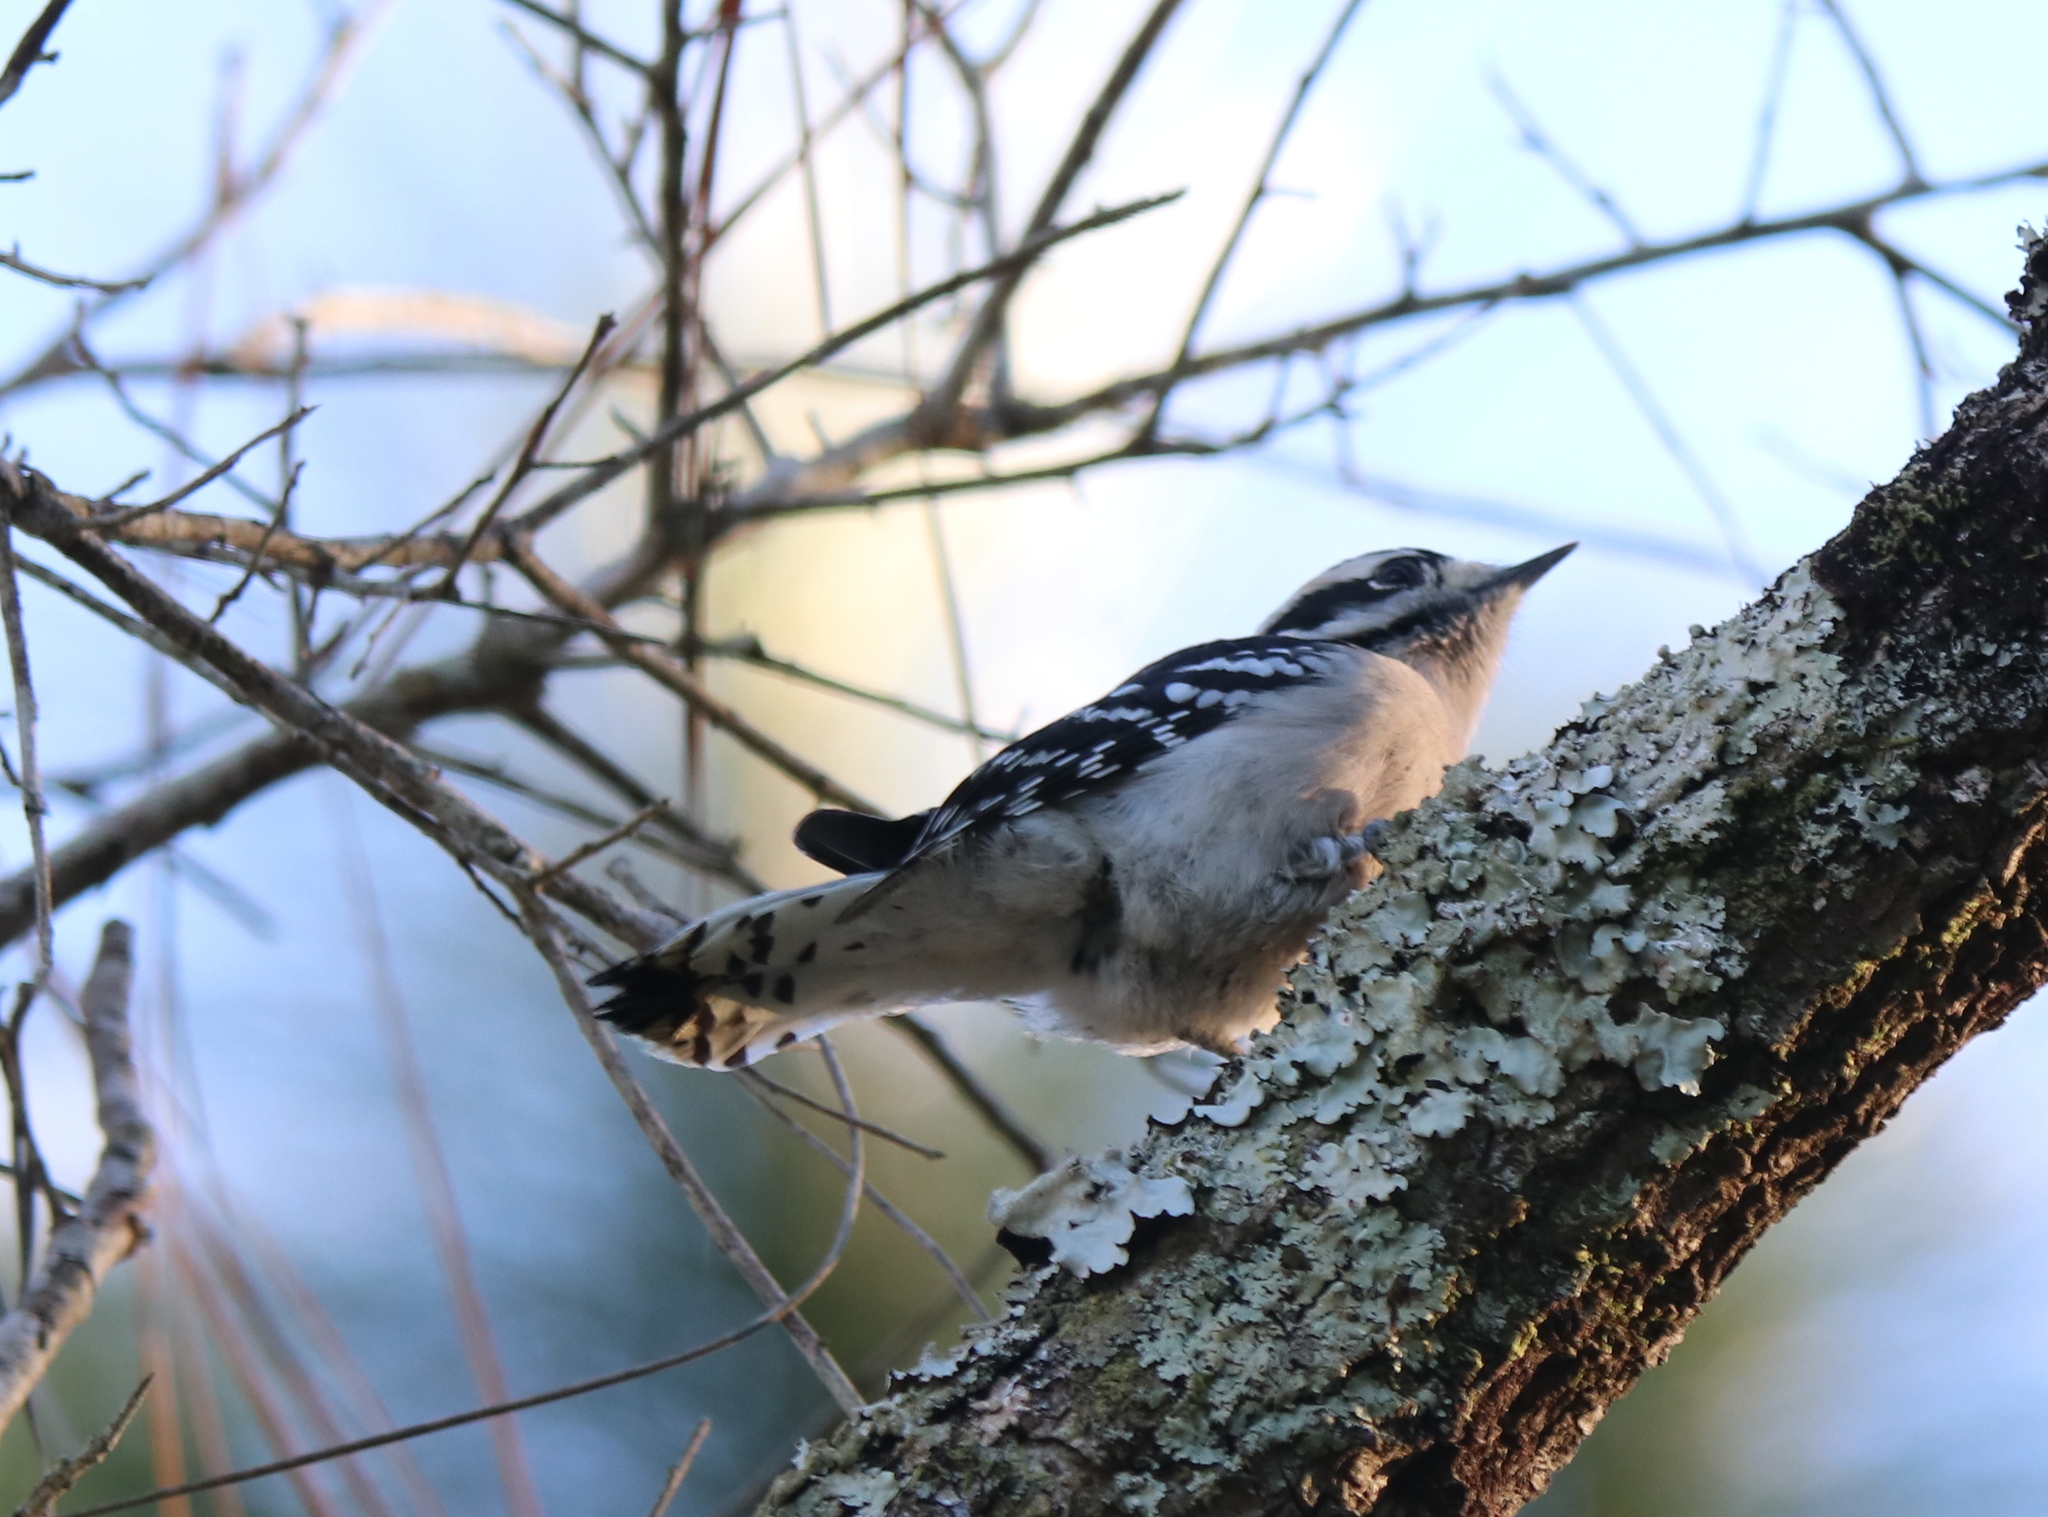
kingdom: Animalia
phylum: Chordata
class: Aves
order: Piciformes
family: Picidae
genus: Dryobates
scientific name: Dryobates pubescens
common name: Downy woodpecker
